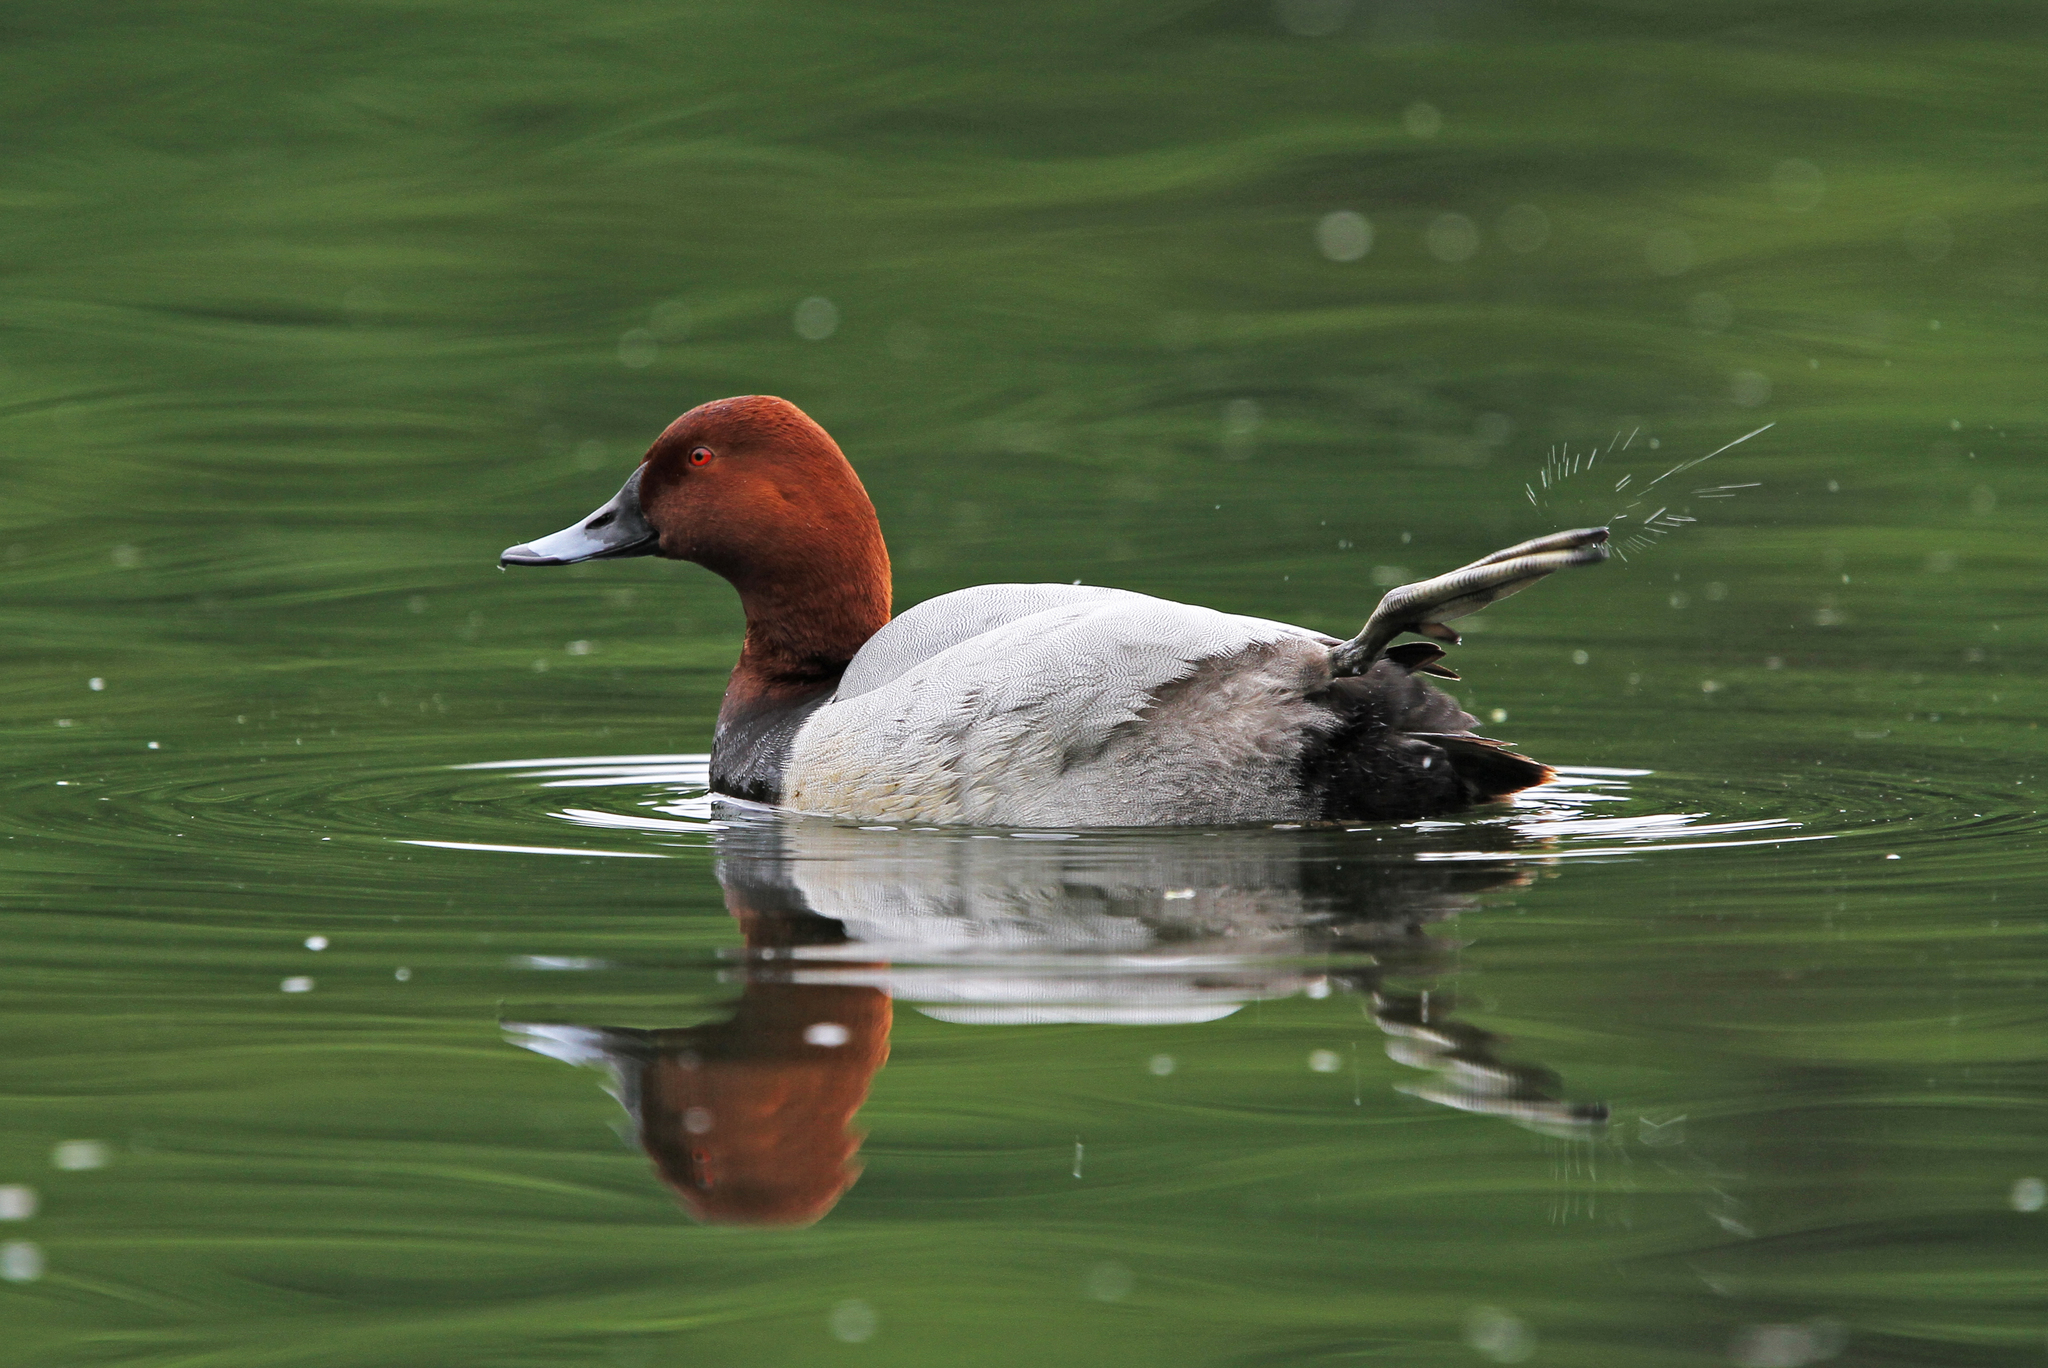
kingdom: Animalia
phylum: Chordata
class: Aves
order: Anseriformes
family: Anatidae
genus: Aythya
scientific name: Aythya ferina
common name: Common pochard
